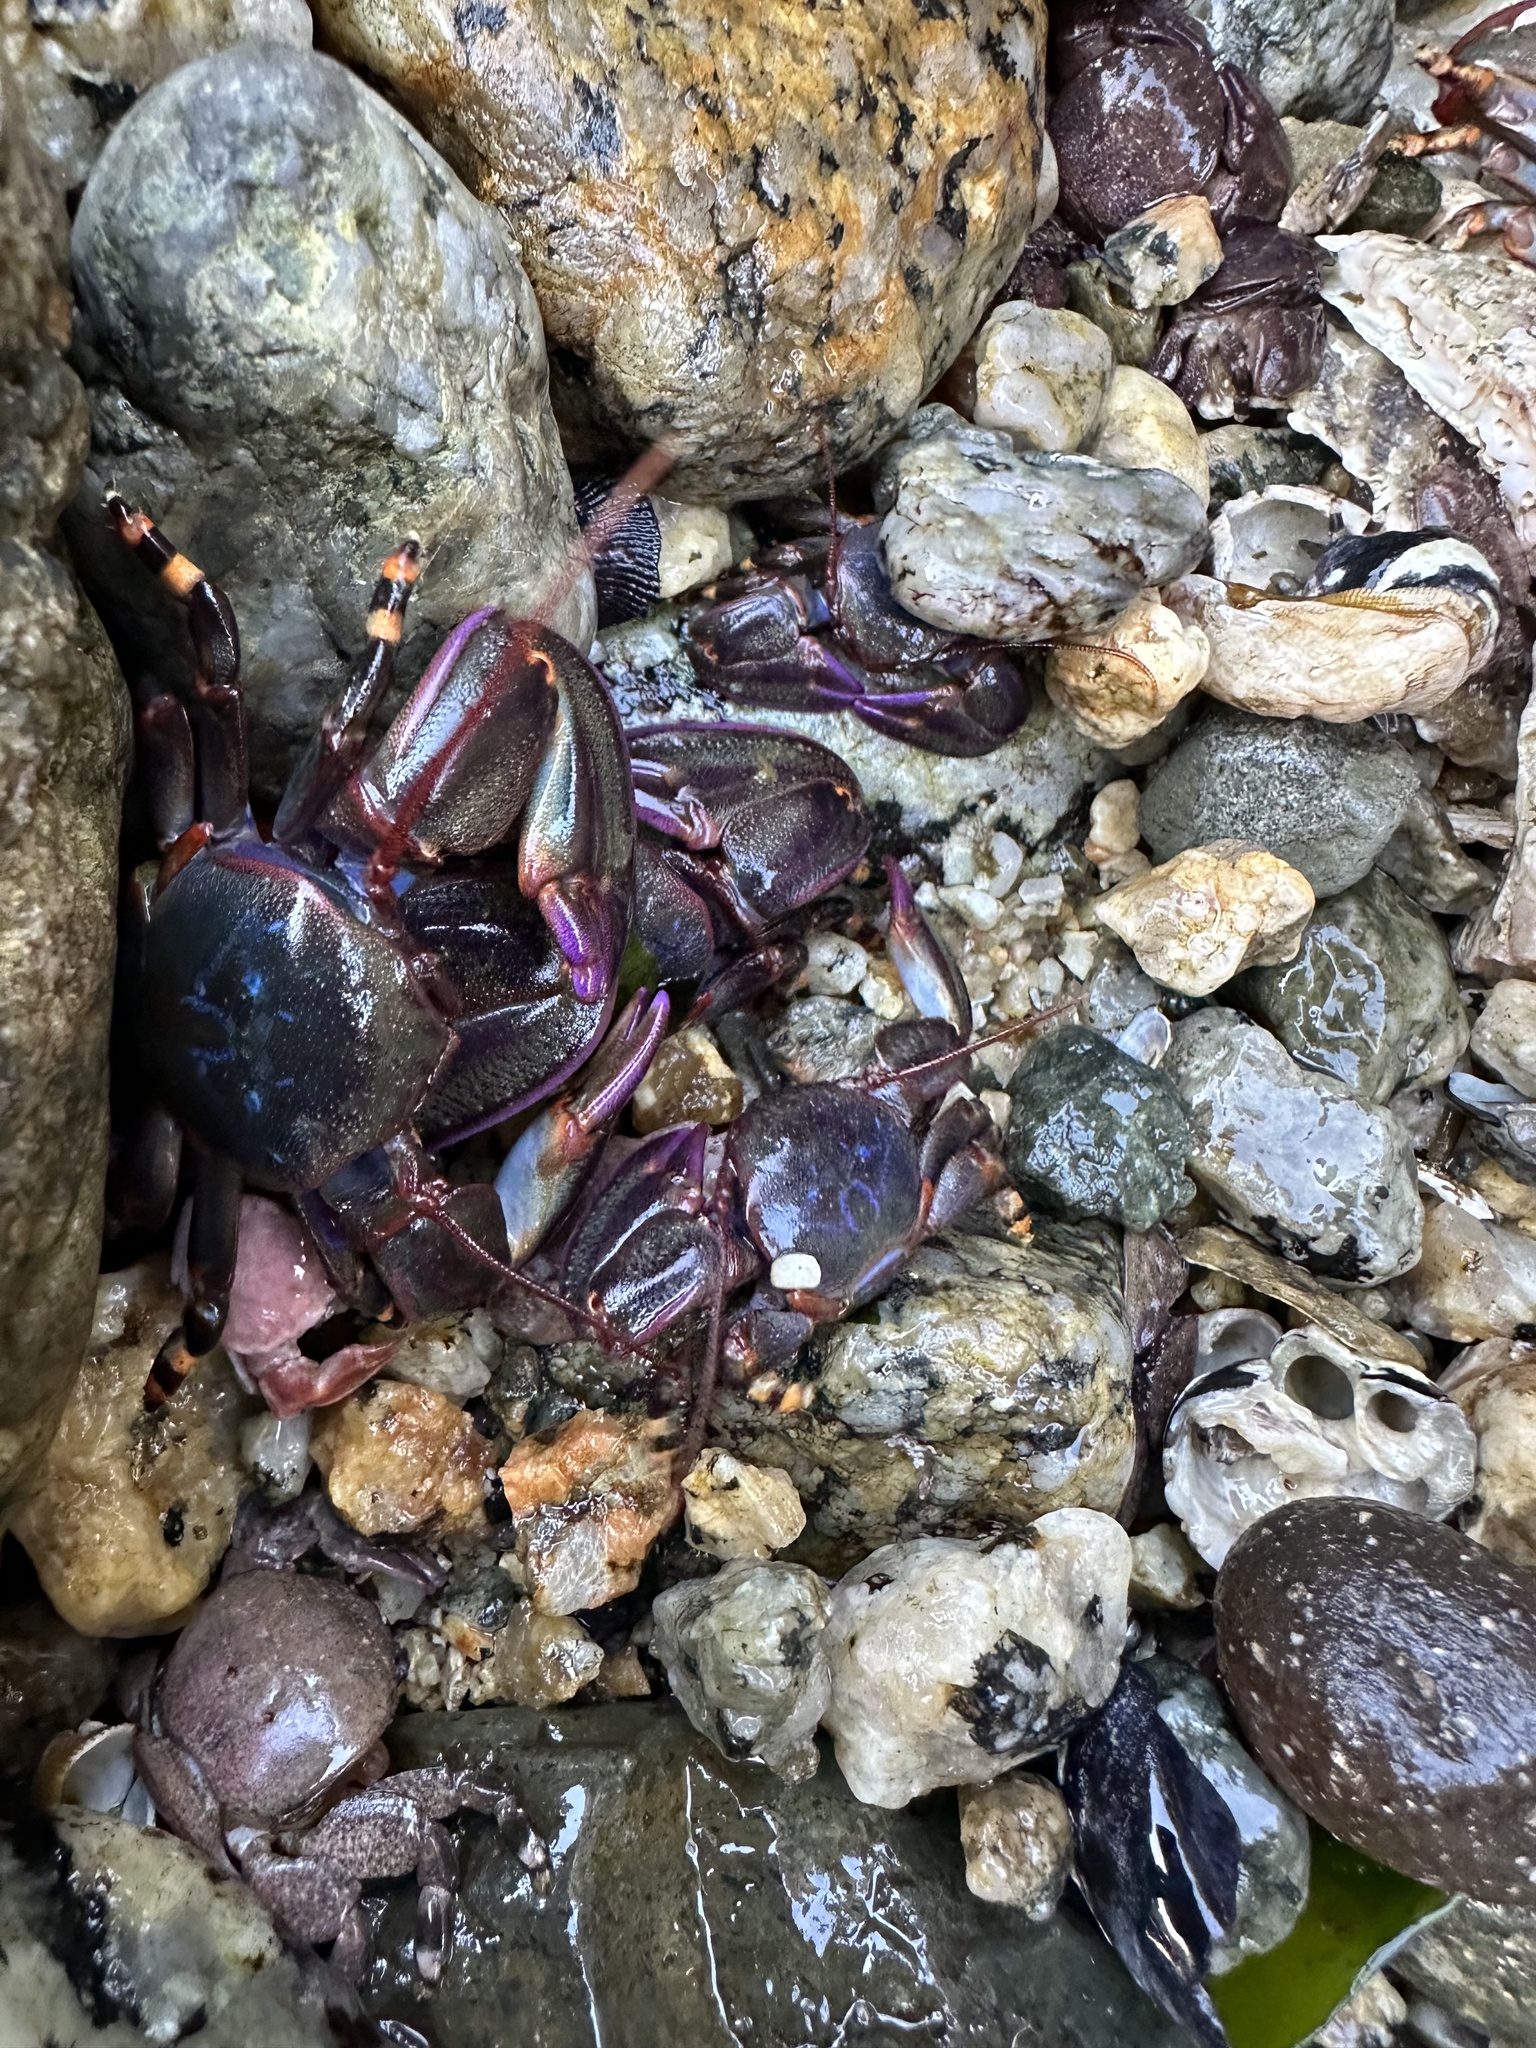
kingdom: Animalia
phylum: Arthropoda
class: Malacostraca
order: Decapoda
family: Porcellanidae
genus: Petrolisthes
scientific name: Petrolisthes violaceus
